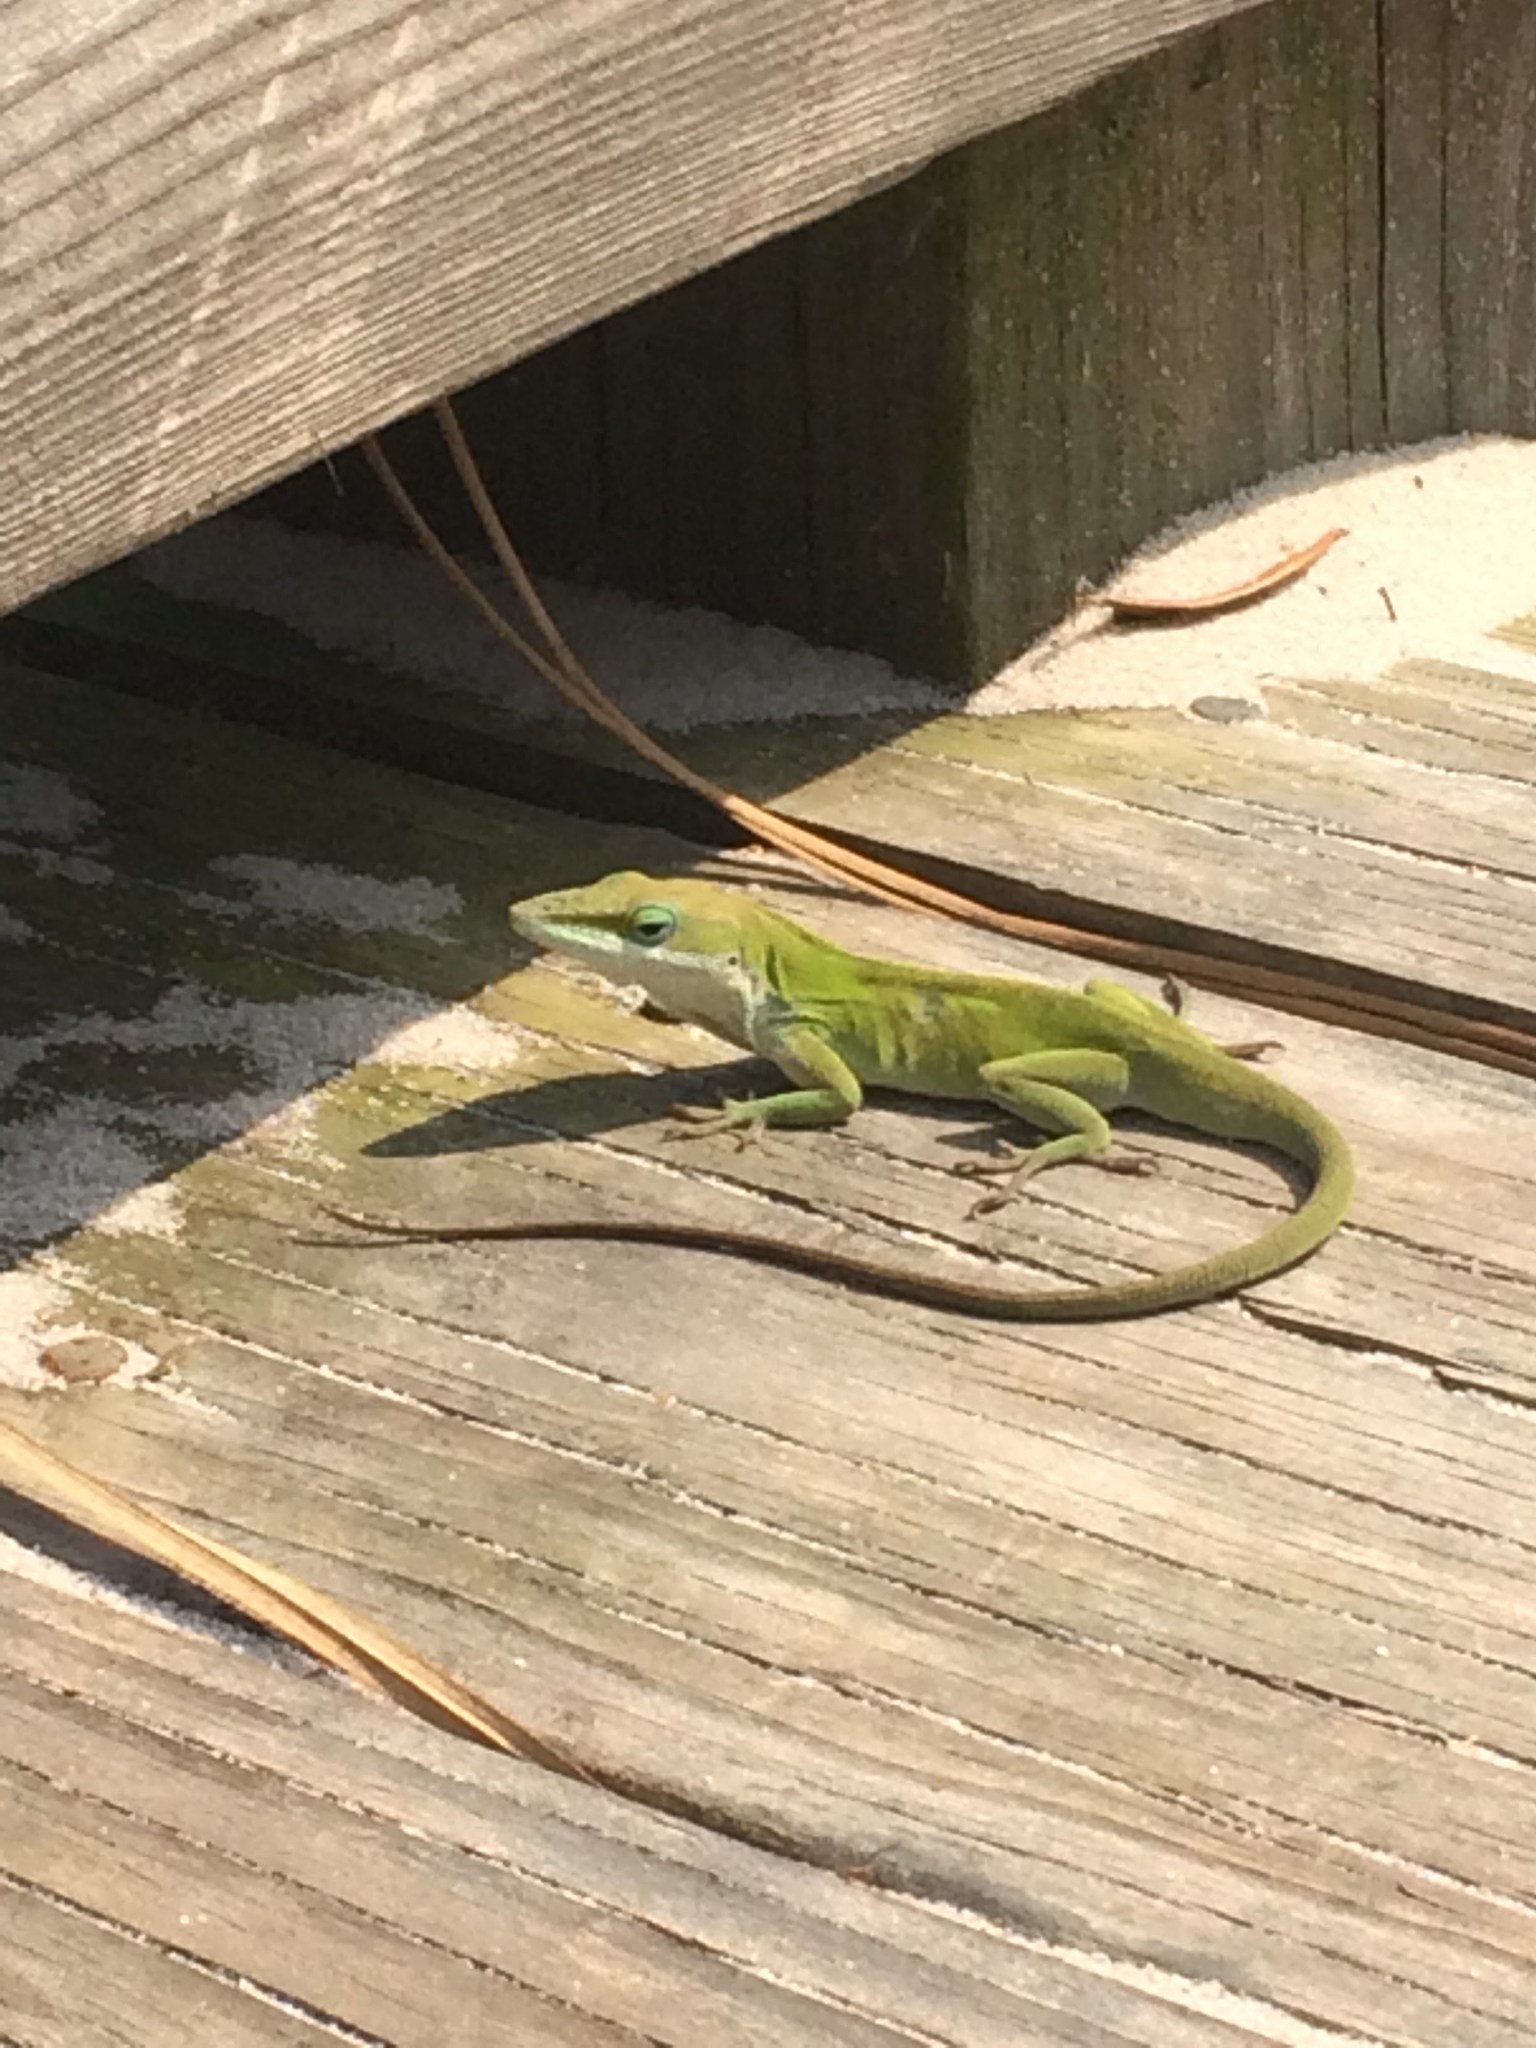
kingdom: Animalia
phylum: Chordata
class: Squamata
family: Dactyloidae
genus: Anolis
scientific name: Anolis carolinensis
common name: Green anole
